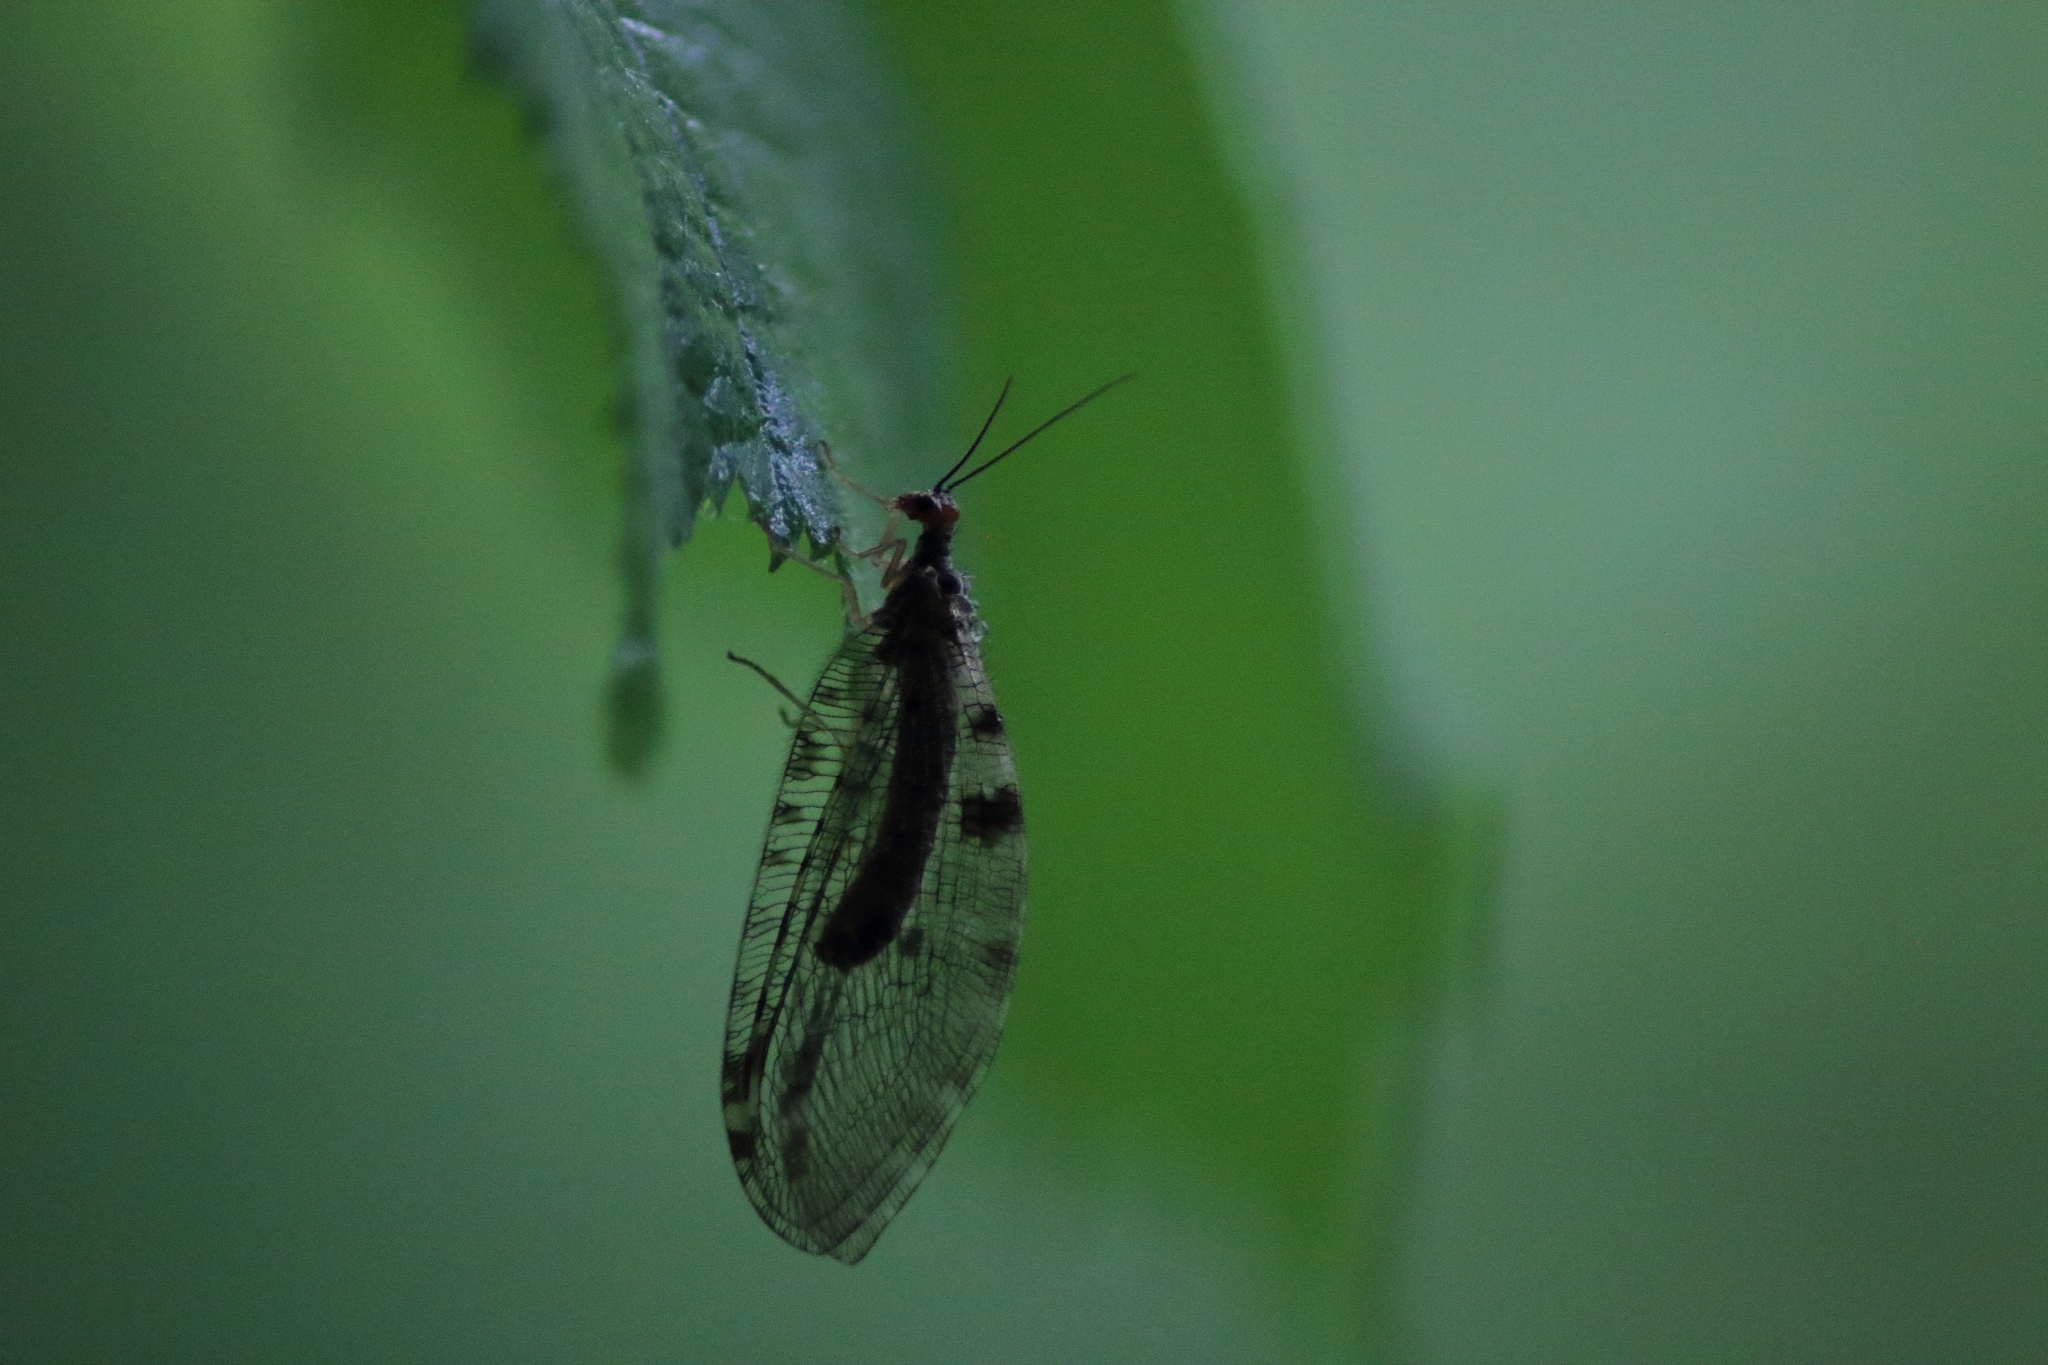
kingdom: Animalia
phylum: Arthropoda
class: Insecta
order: Neuroptera
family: Osmylidae
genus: Osmylus
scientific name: Osmylus fulvicephalus
